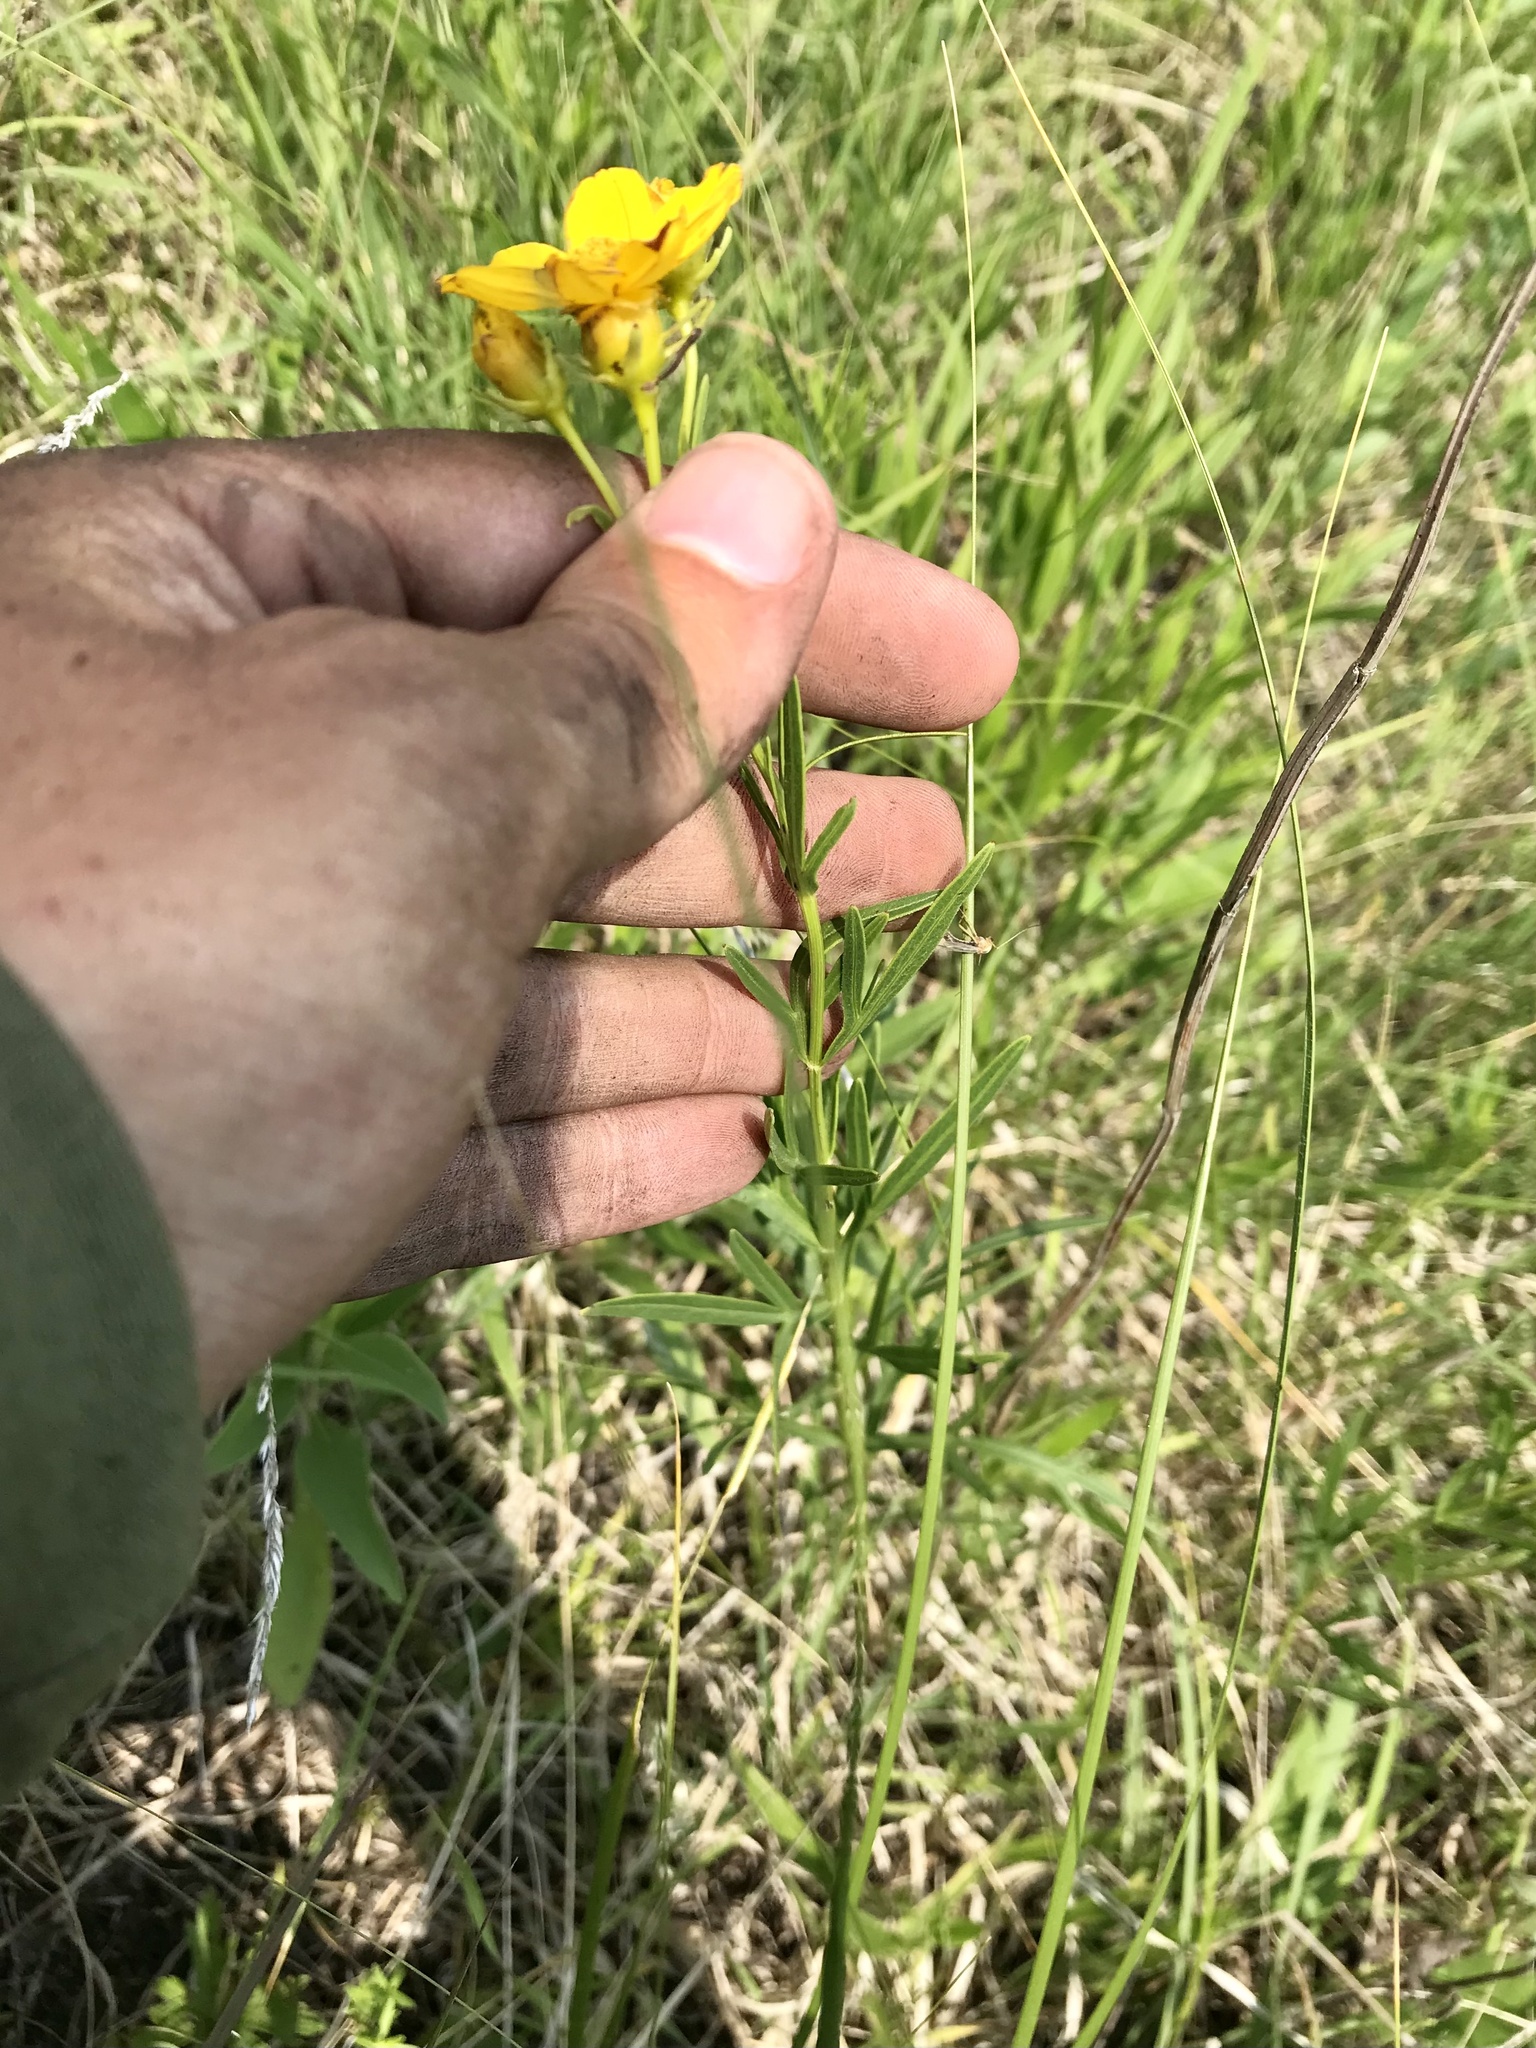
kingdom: Plantae
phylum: Tracheophyta
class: Magnoliopsida
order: Asterales
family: Asteraceae
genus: Coreopsis
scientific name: Coreopsis palmata
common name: Prairie coreopsis
